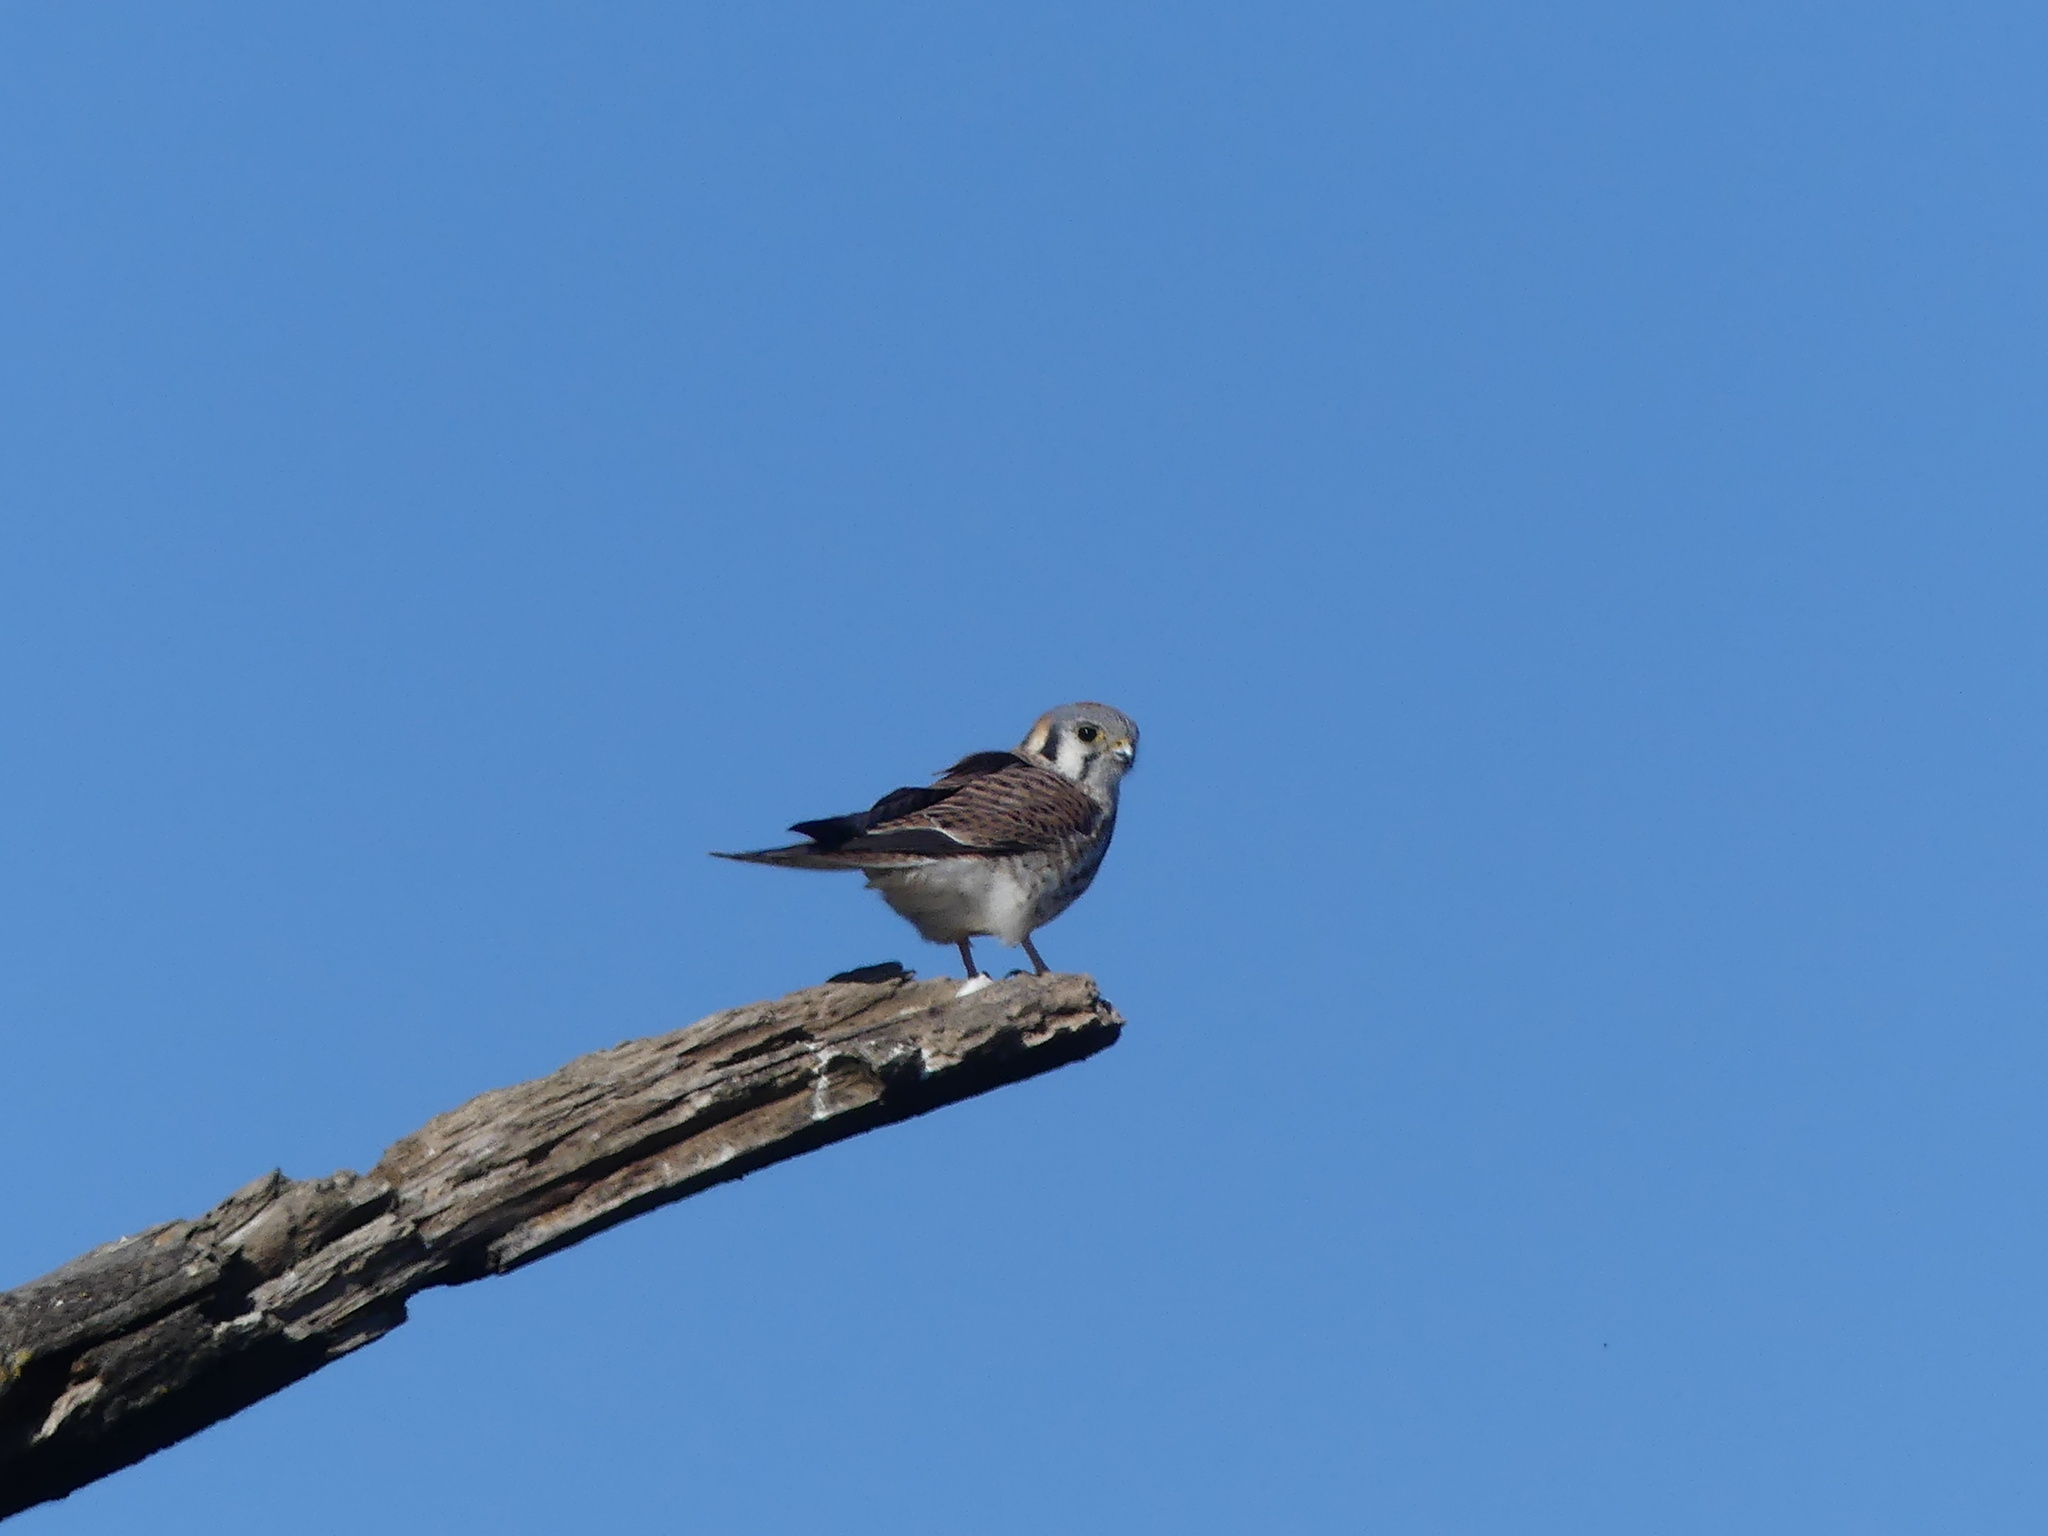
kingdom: Animalia
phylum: Chordata
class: Aves
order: Falconiformes
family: Falconidae
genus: Falco
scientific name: Falco sparverius
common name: American kestrel
